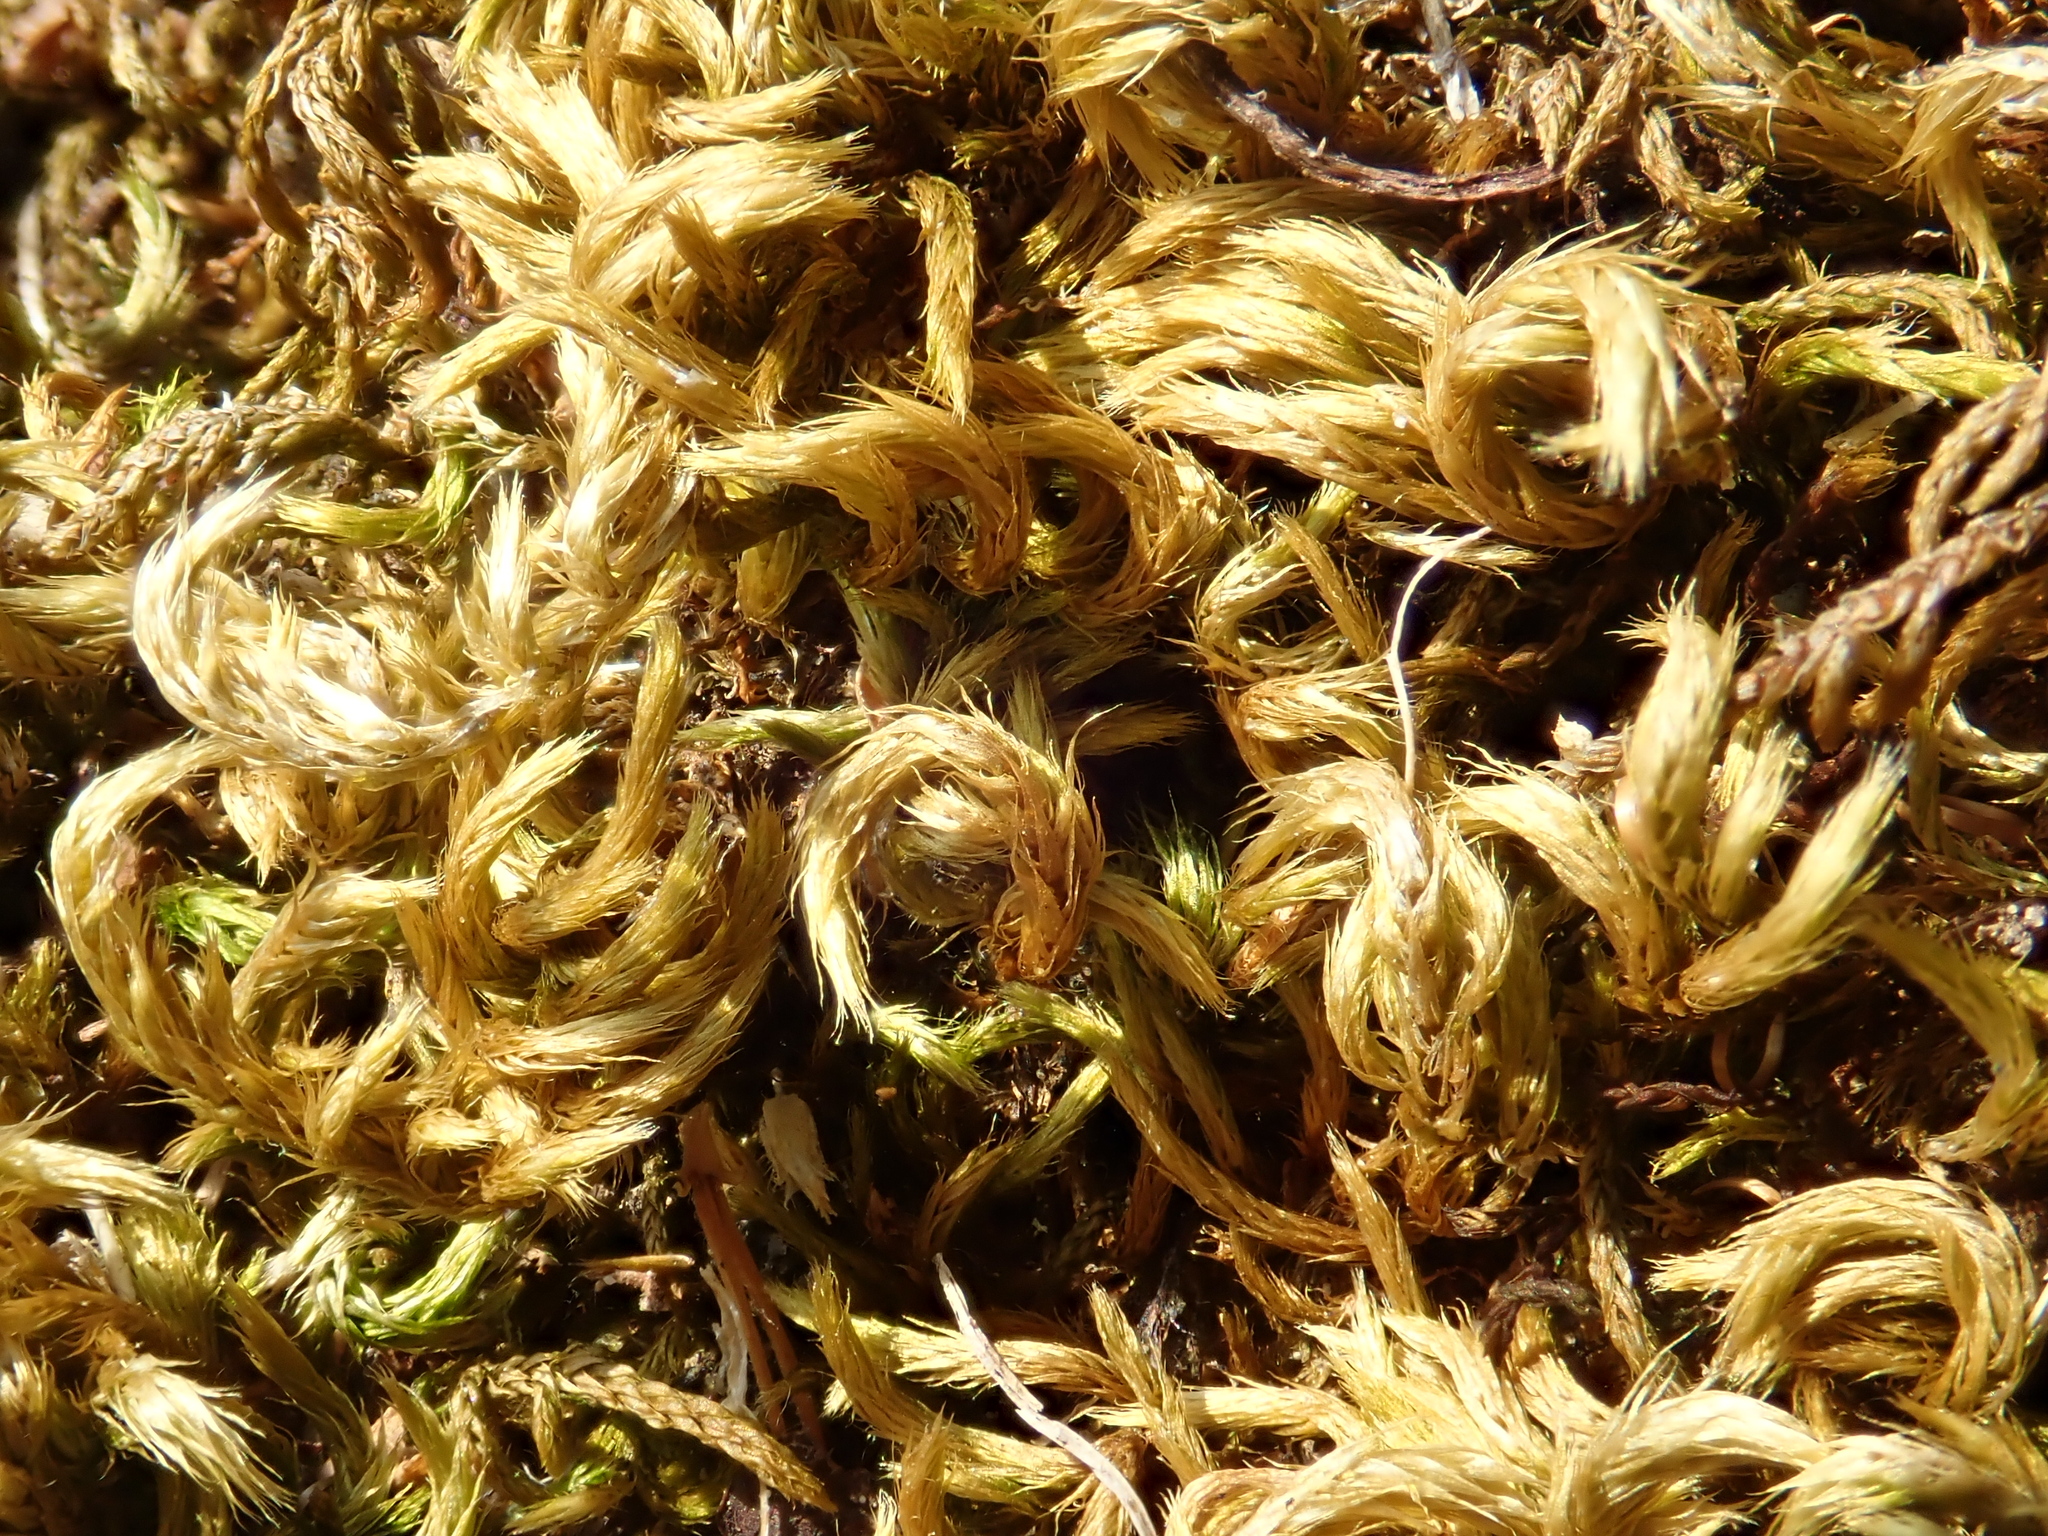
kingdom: Plantae
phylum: Bryophyta
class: Bryopsida
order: Hypnales
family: Brachytheciaceae
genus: Homalothecium
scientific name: Homalothecium sericeum
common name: Silky wall feather-moss
